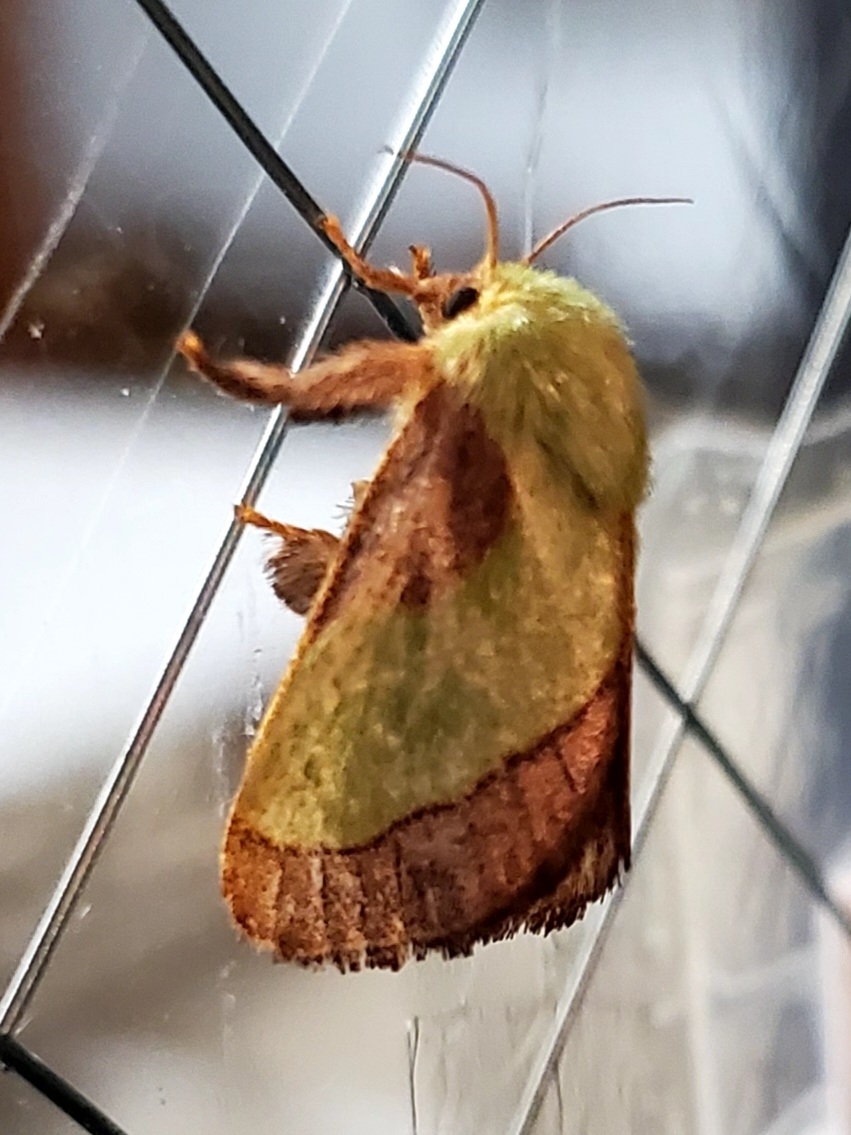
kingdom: Animalia
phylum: Arthropoda
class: Insecta
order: Lepidoptera
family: Limacodidae
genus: Parasa
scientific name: Parasa chloris
